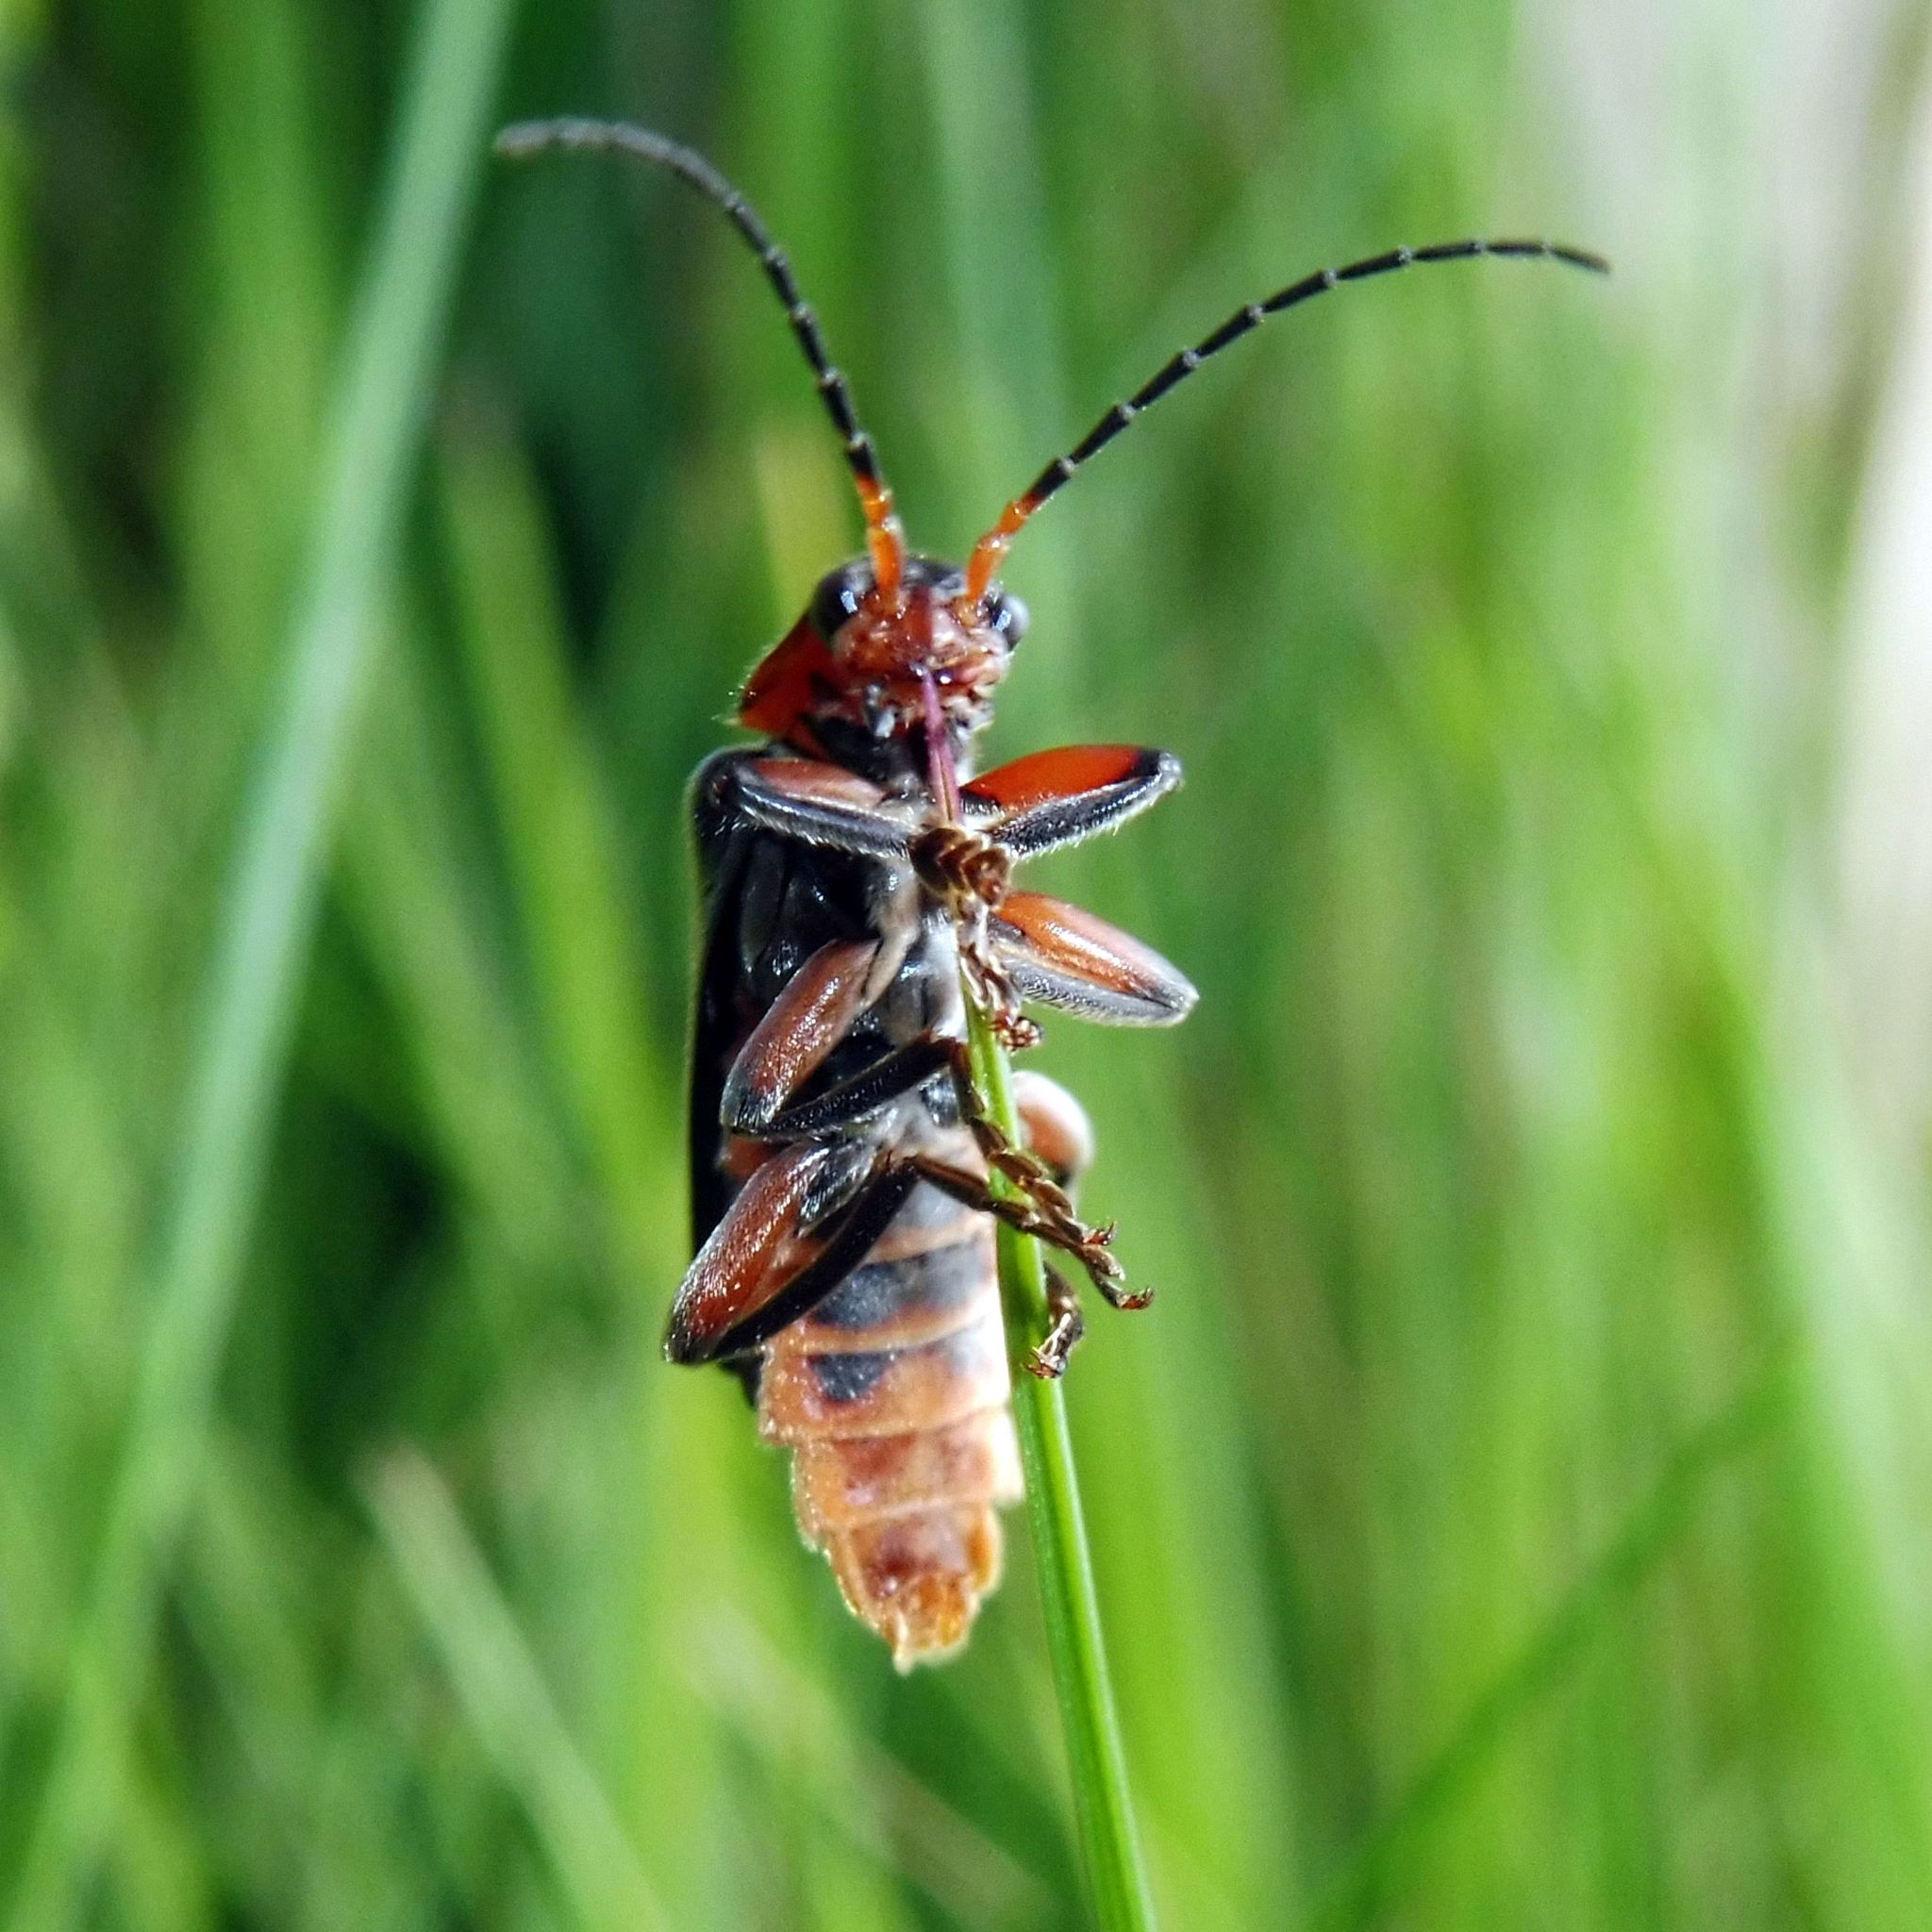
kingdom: Animalia
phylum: Arthropoda
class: Insecta
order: Coleoptera
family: Cantharidae
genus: Cantharis
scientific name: Cantharis rustica
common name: Soldier beetle
